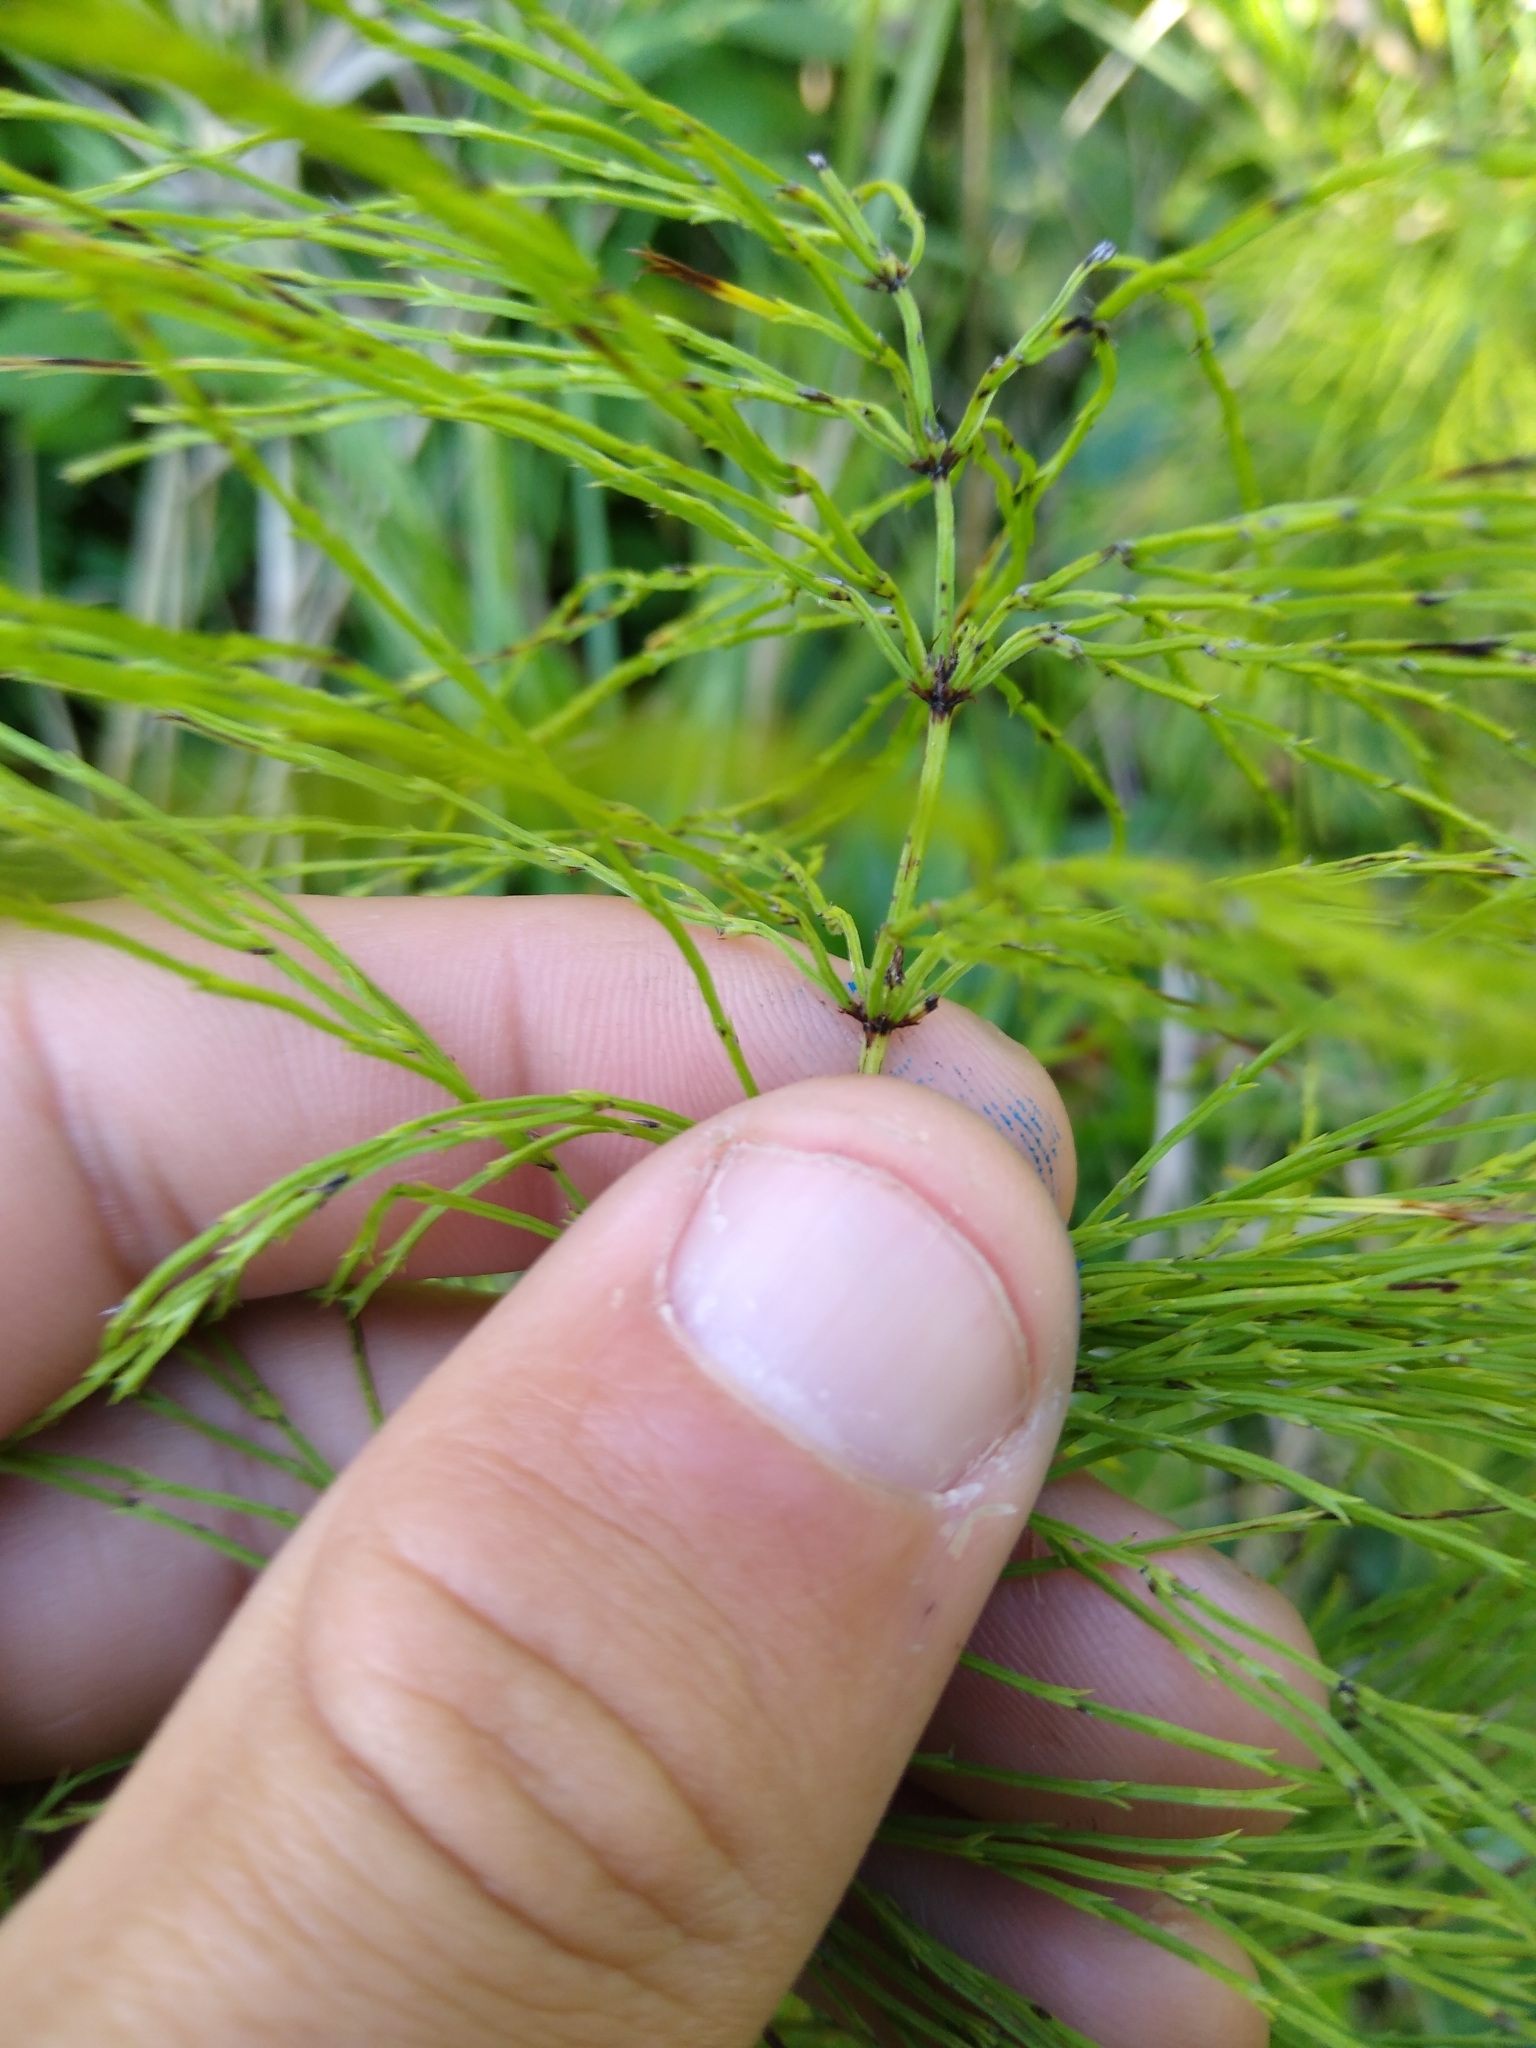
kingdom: Plantae
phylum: Tracheophyta
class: Polypodiopsida
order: Equisetales
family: Equisetaceae
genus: Equisetum
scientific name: Equisetum sylvaticum
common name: Wood horsetail
